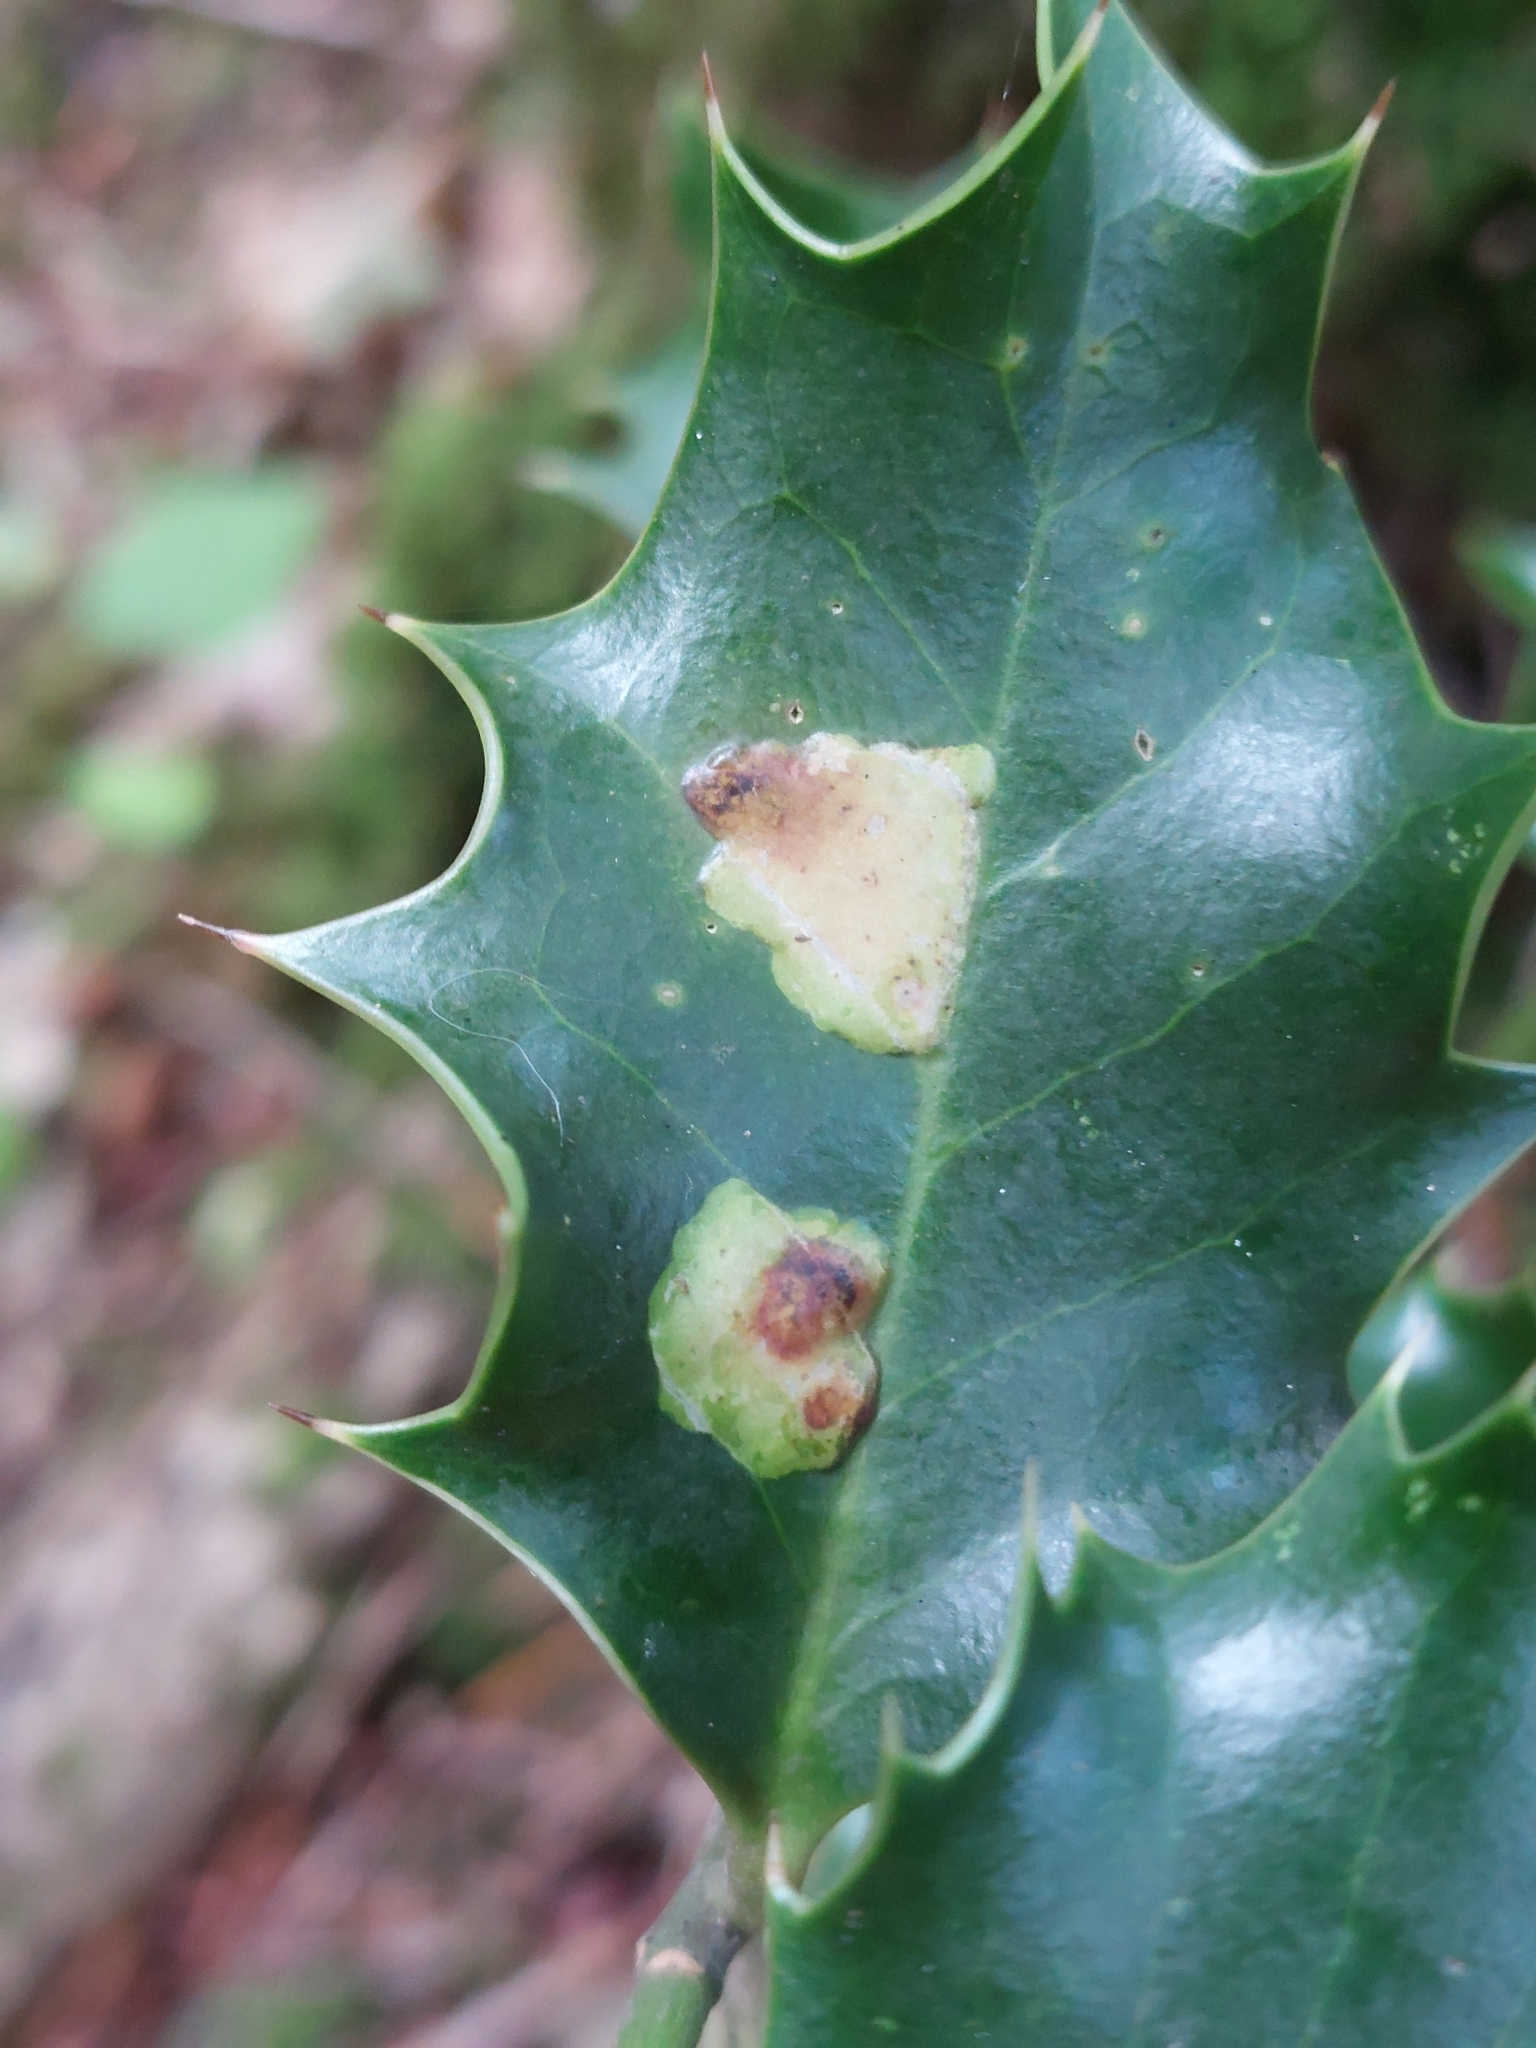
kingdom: Animalia
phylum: Arthropoda
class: Insecta
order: Diptera
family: Agromyzidae
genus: Phytomyza
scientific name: Phytomyza ilicis
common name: Holly leafminer
